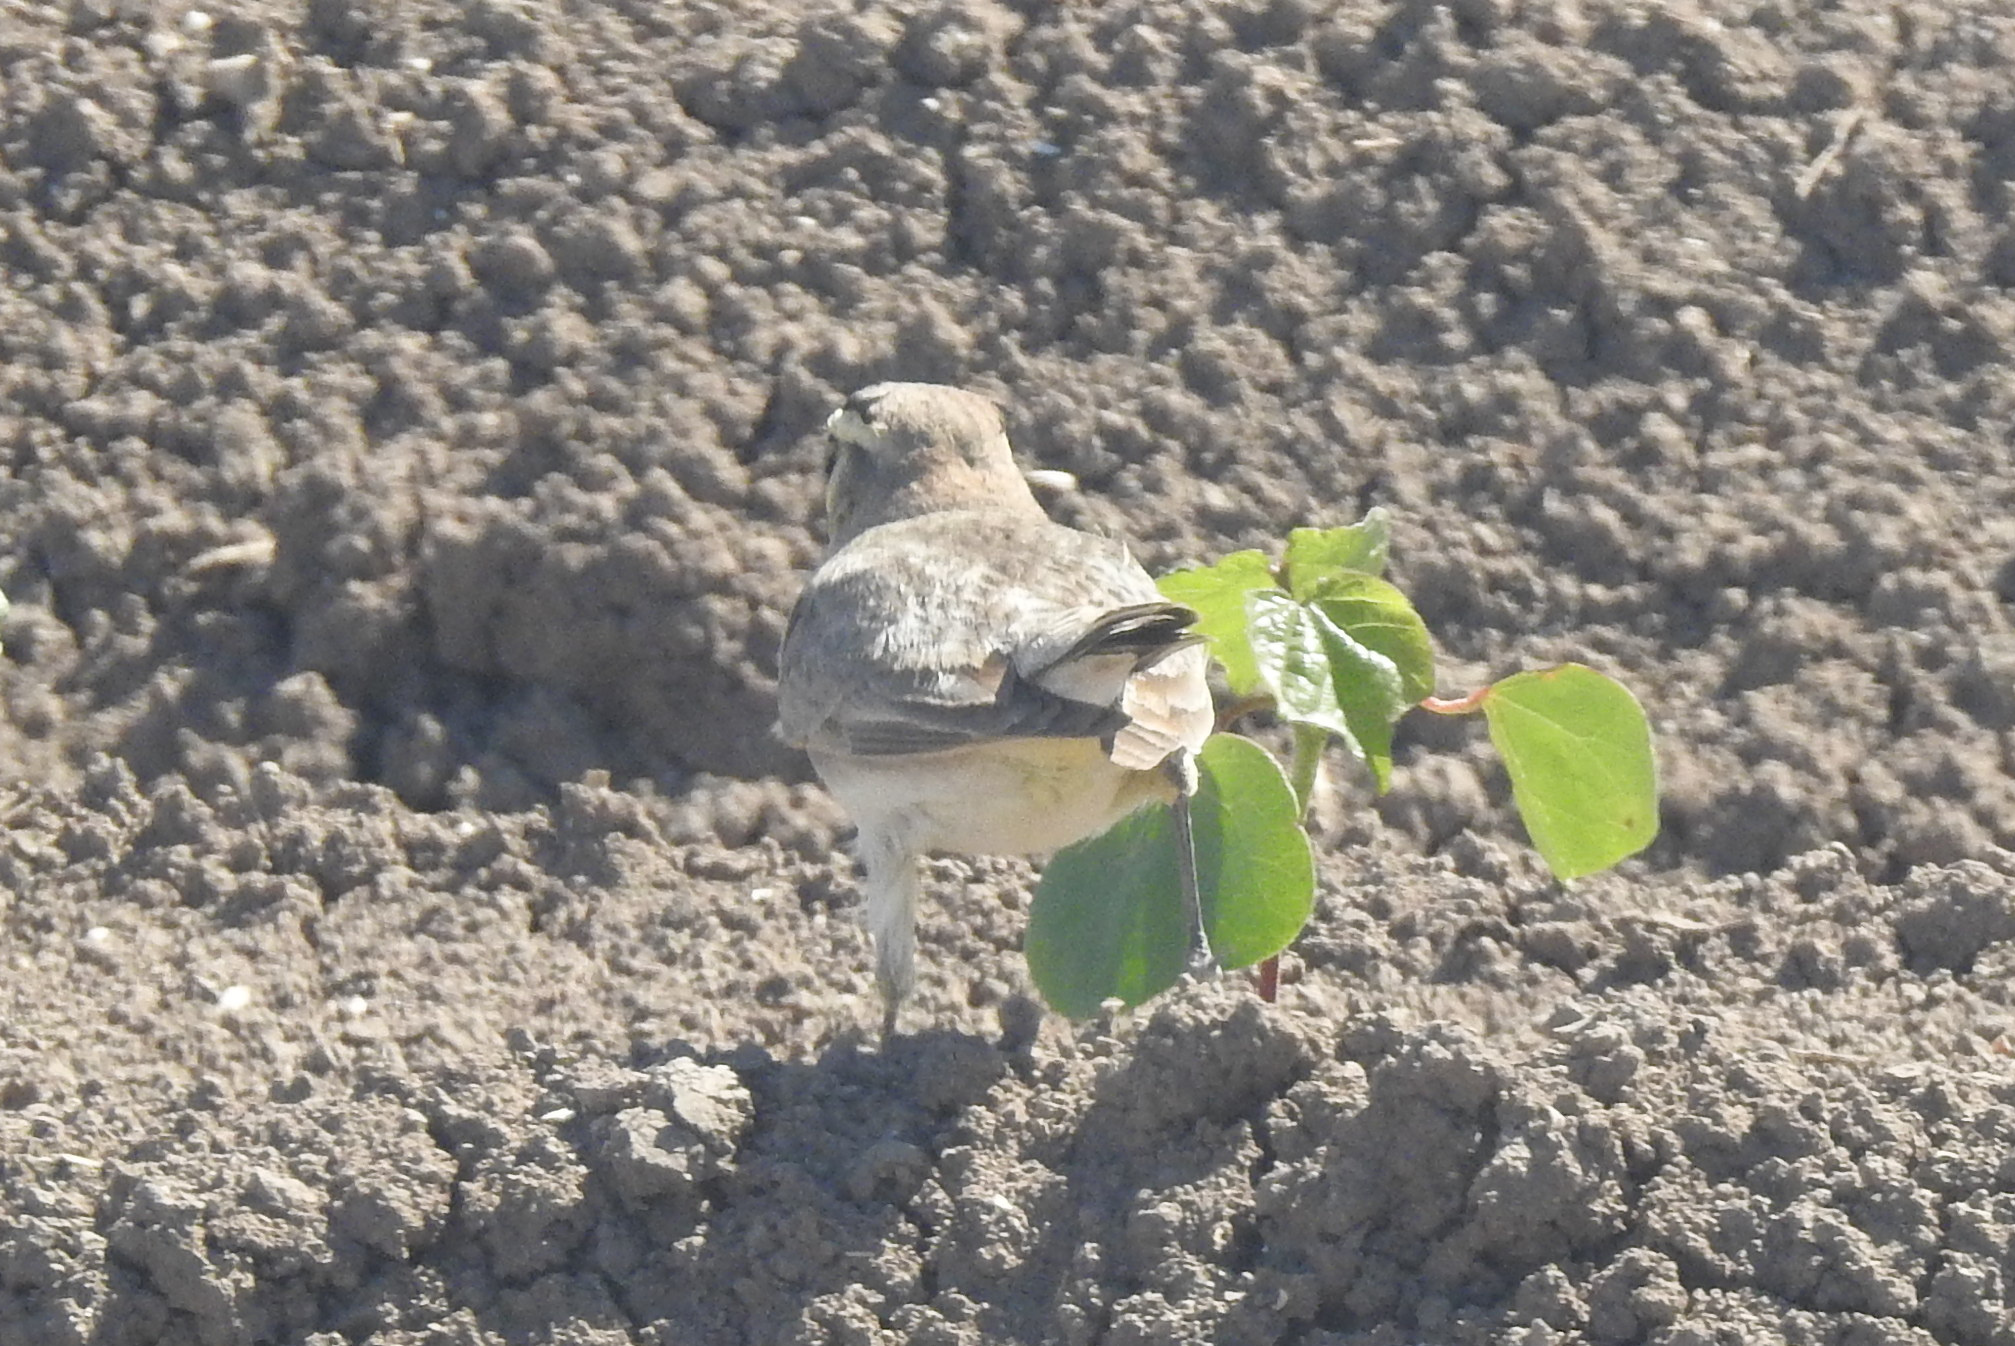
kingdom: Animalia
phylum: Chordata
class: Aves
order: Passeriformes
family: Alaudidae
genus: Eremophila
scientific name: Eremophila alpestris
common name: Horned lark
